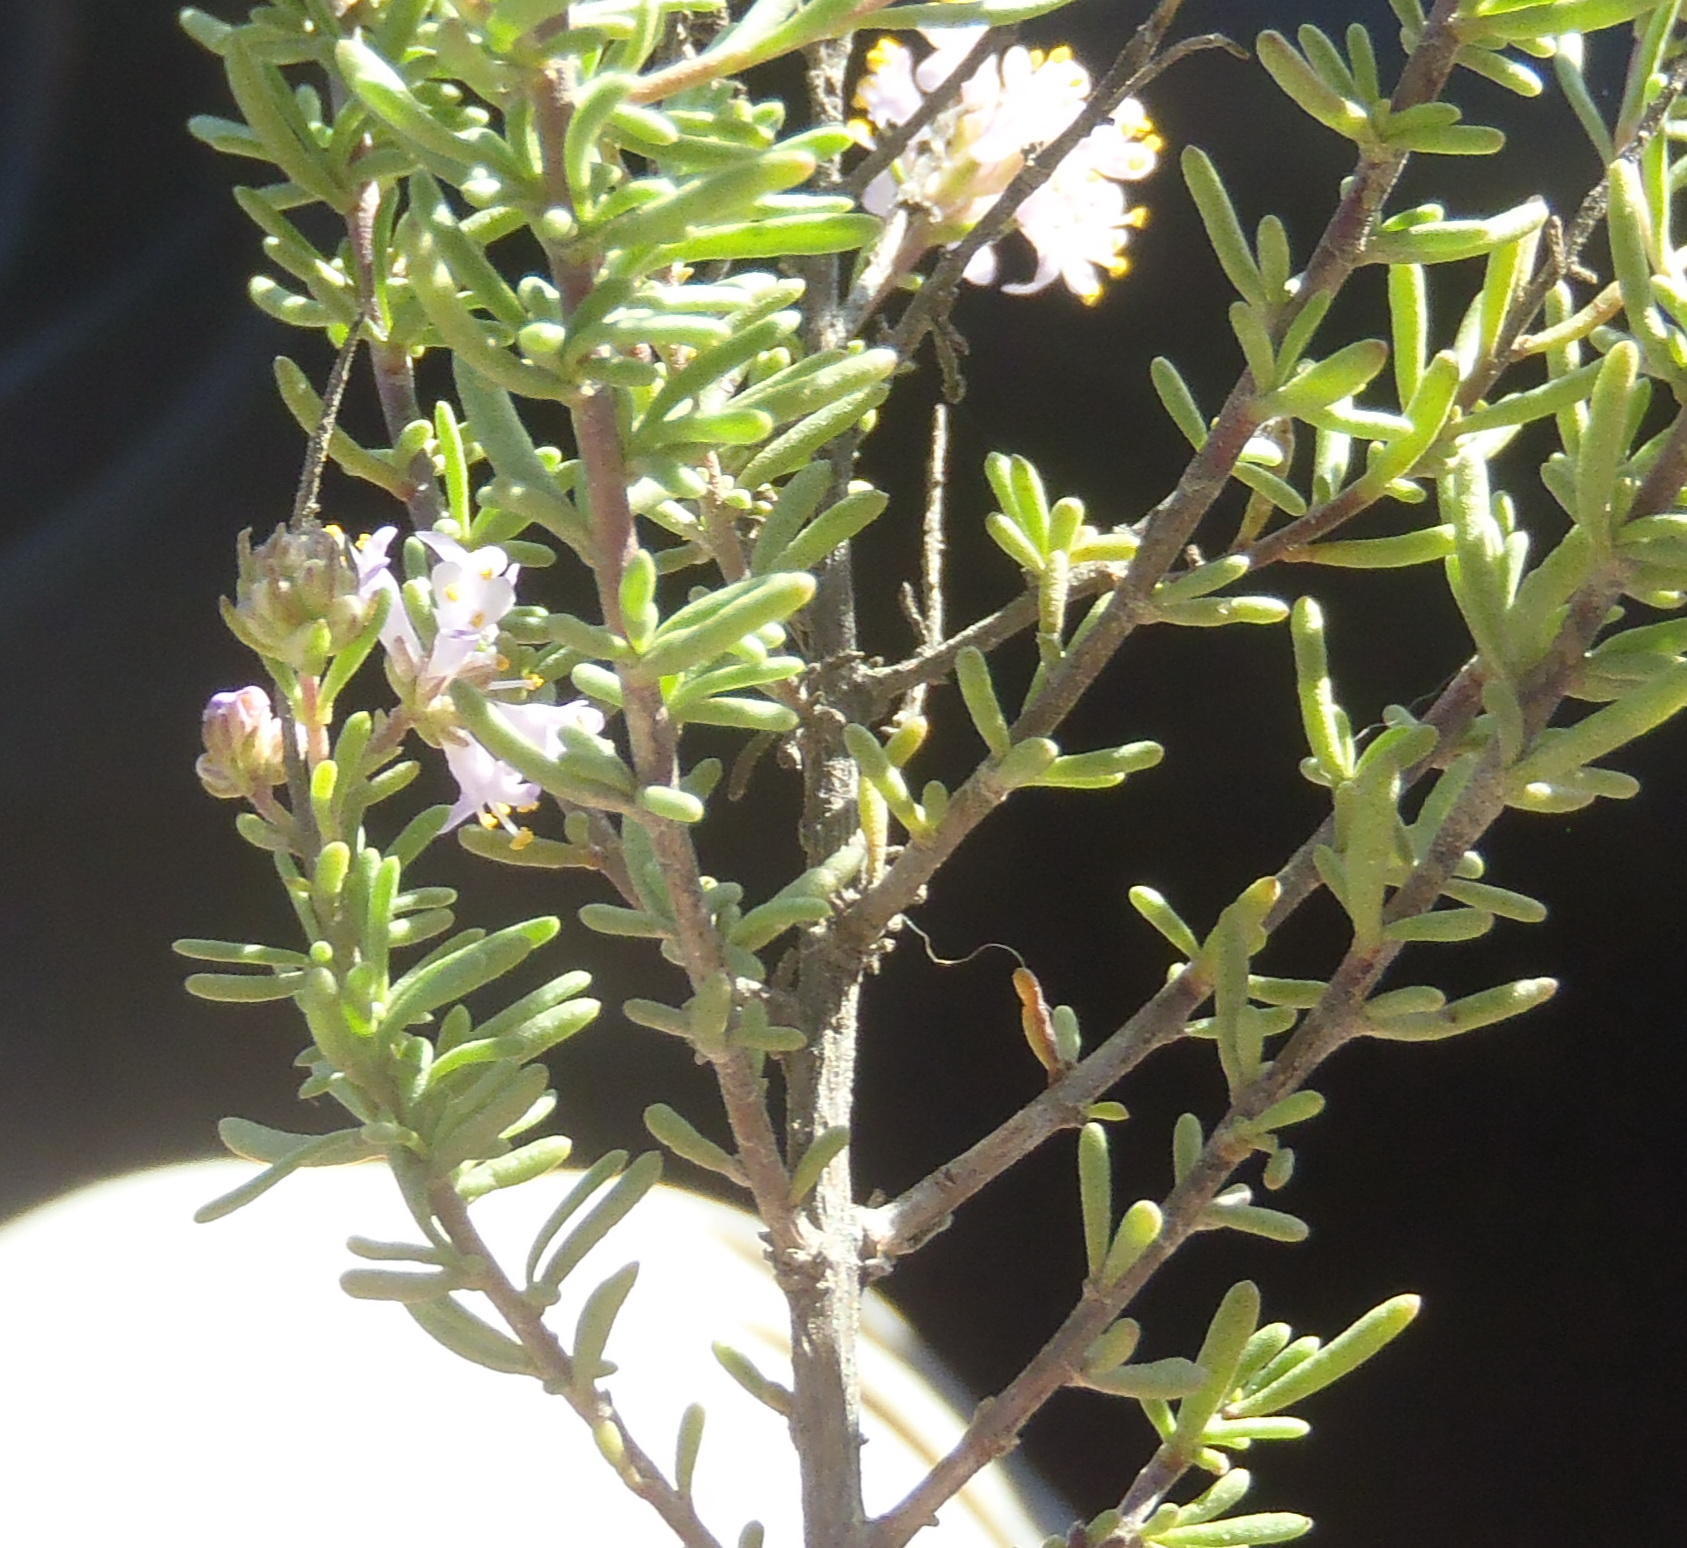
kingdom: Plantae
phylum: Tracheophyta
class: Magnoliopsida
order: Lamiales
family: Scrophulariaceae
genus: Selago
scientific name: Selago albida
